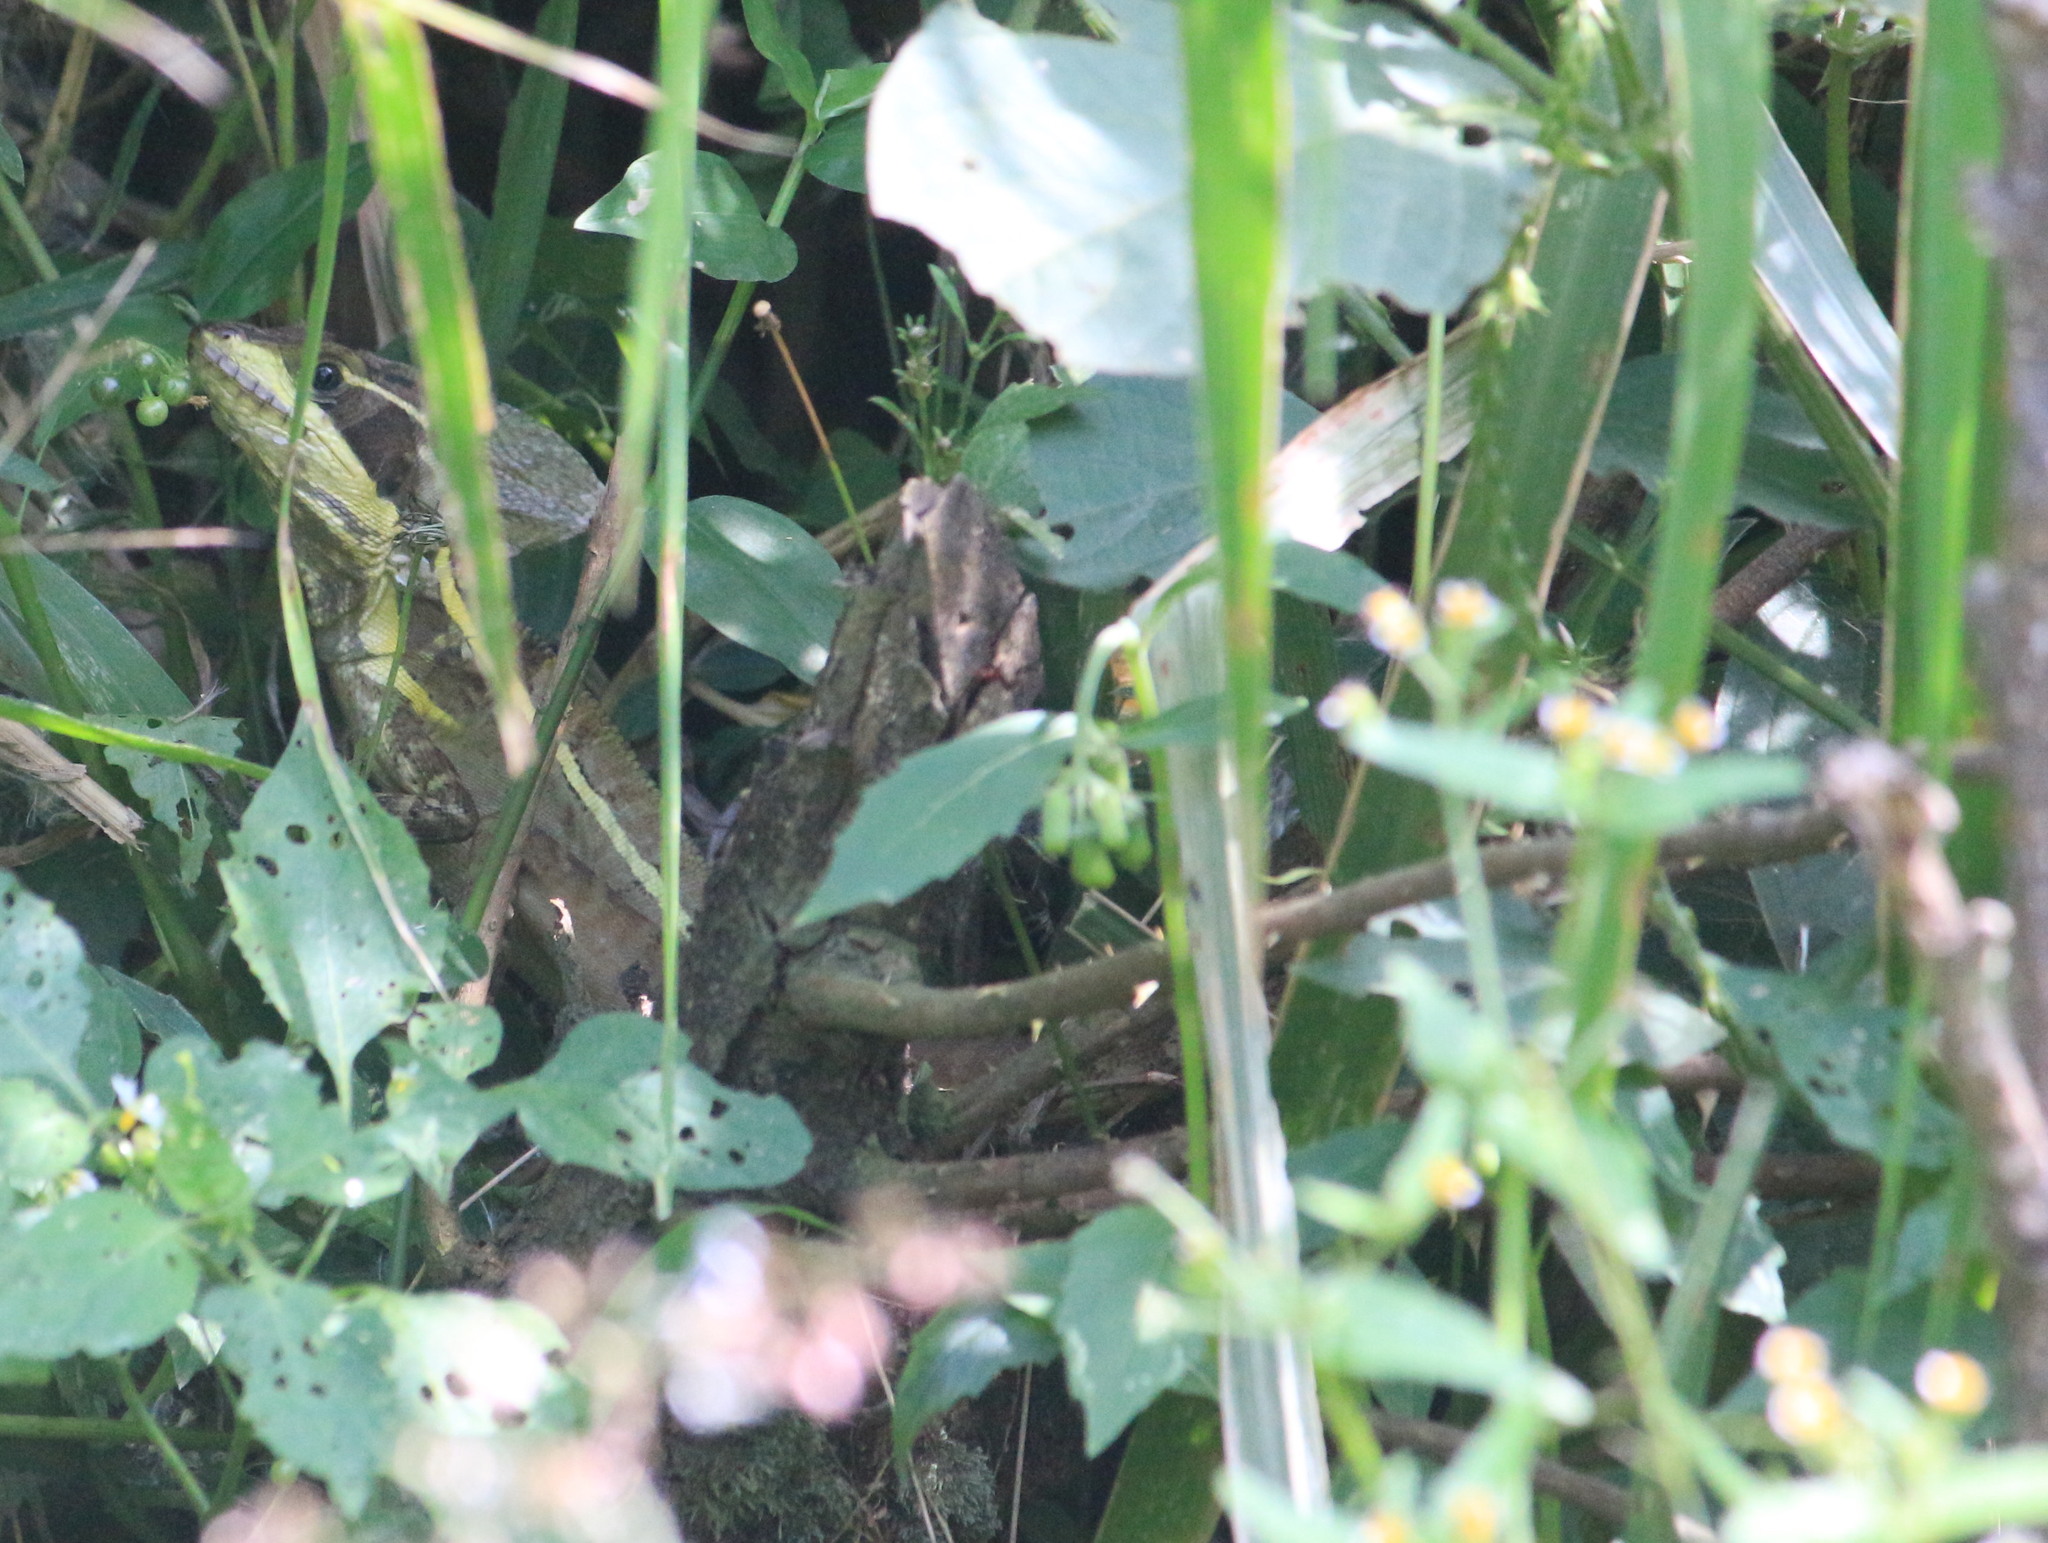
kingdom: Animalia
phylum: Chordata
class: Squamata
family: Corytophanidae
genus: Basiliscus
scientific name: Basiliscus vittatus
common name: Brown basilisk
